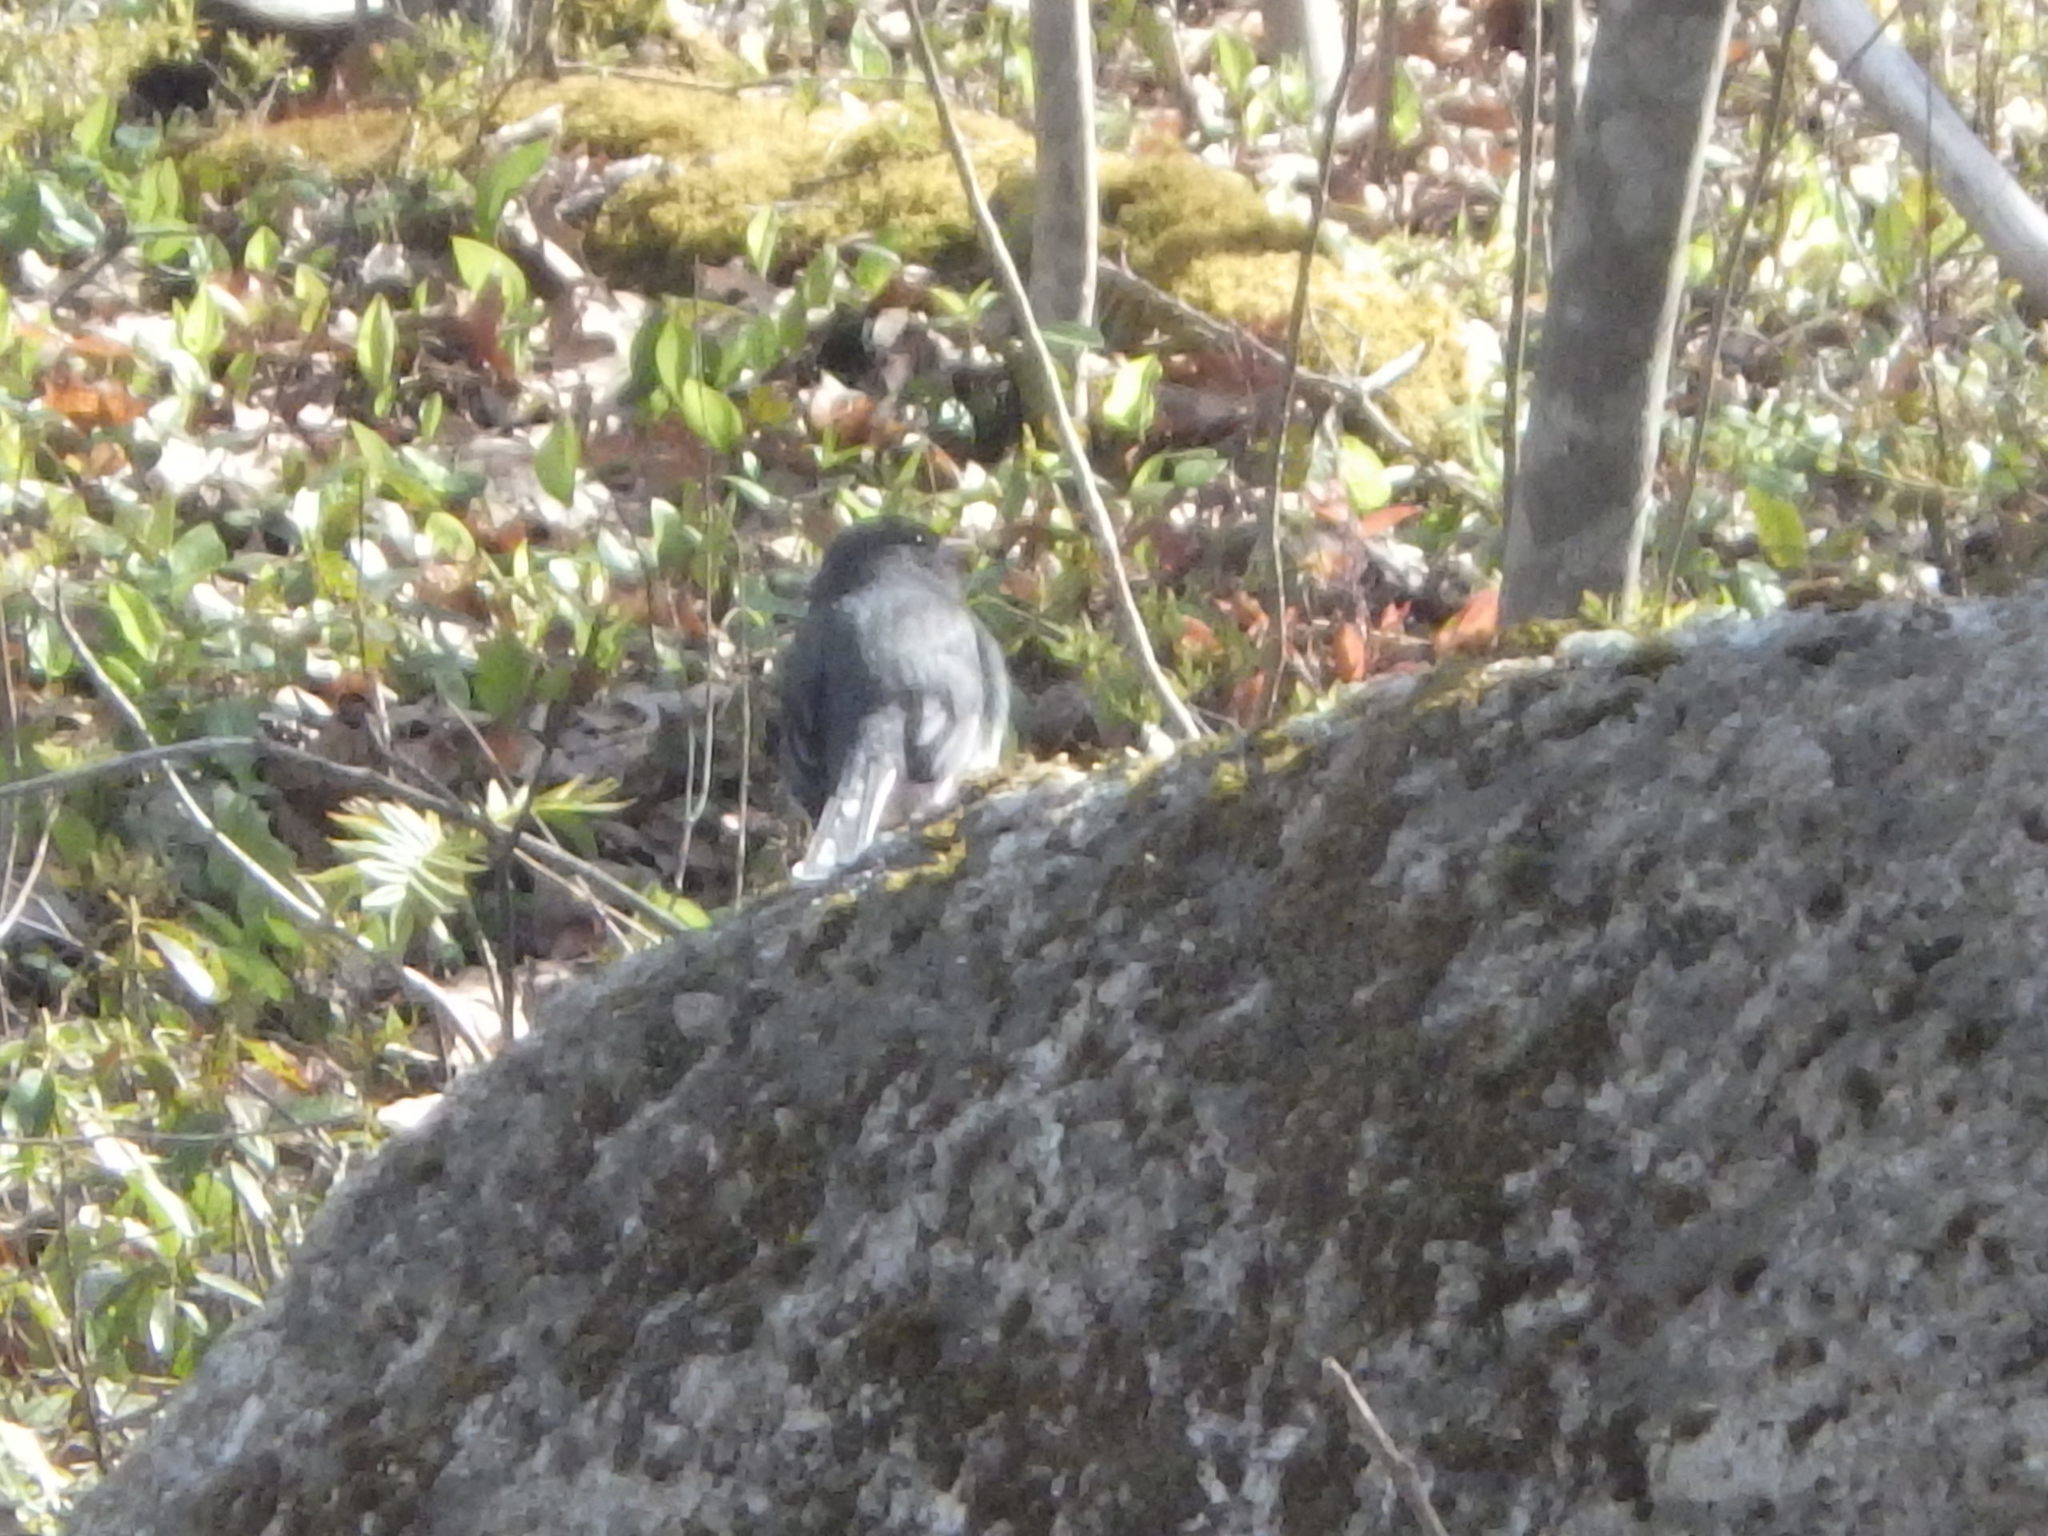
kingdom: Animalia
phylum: Chordata
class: Aves
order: Passeriformes
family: Passerellidae
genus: Junco
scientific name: Junco hyemalis
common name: Dark-eyed junco
